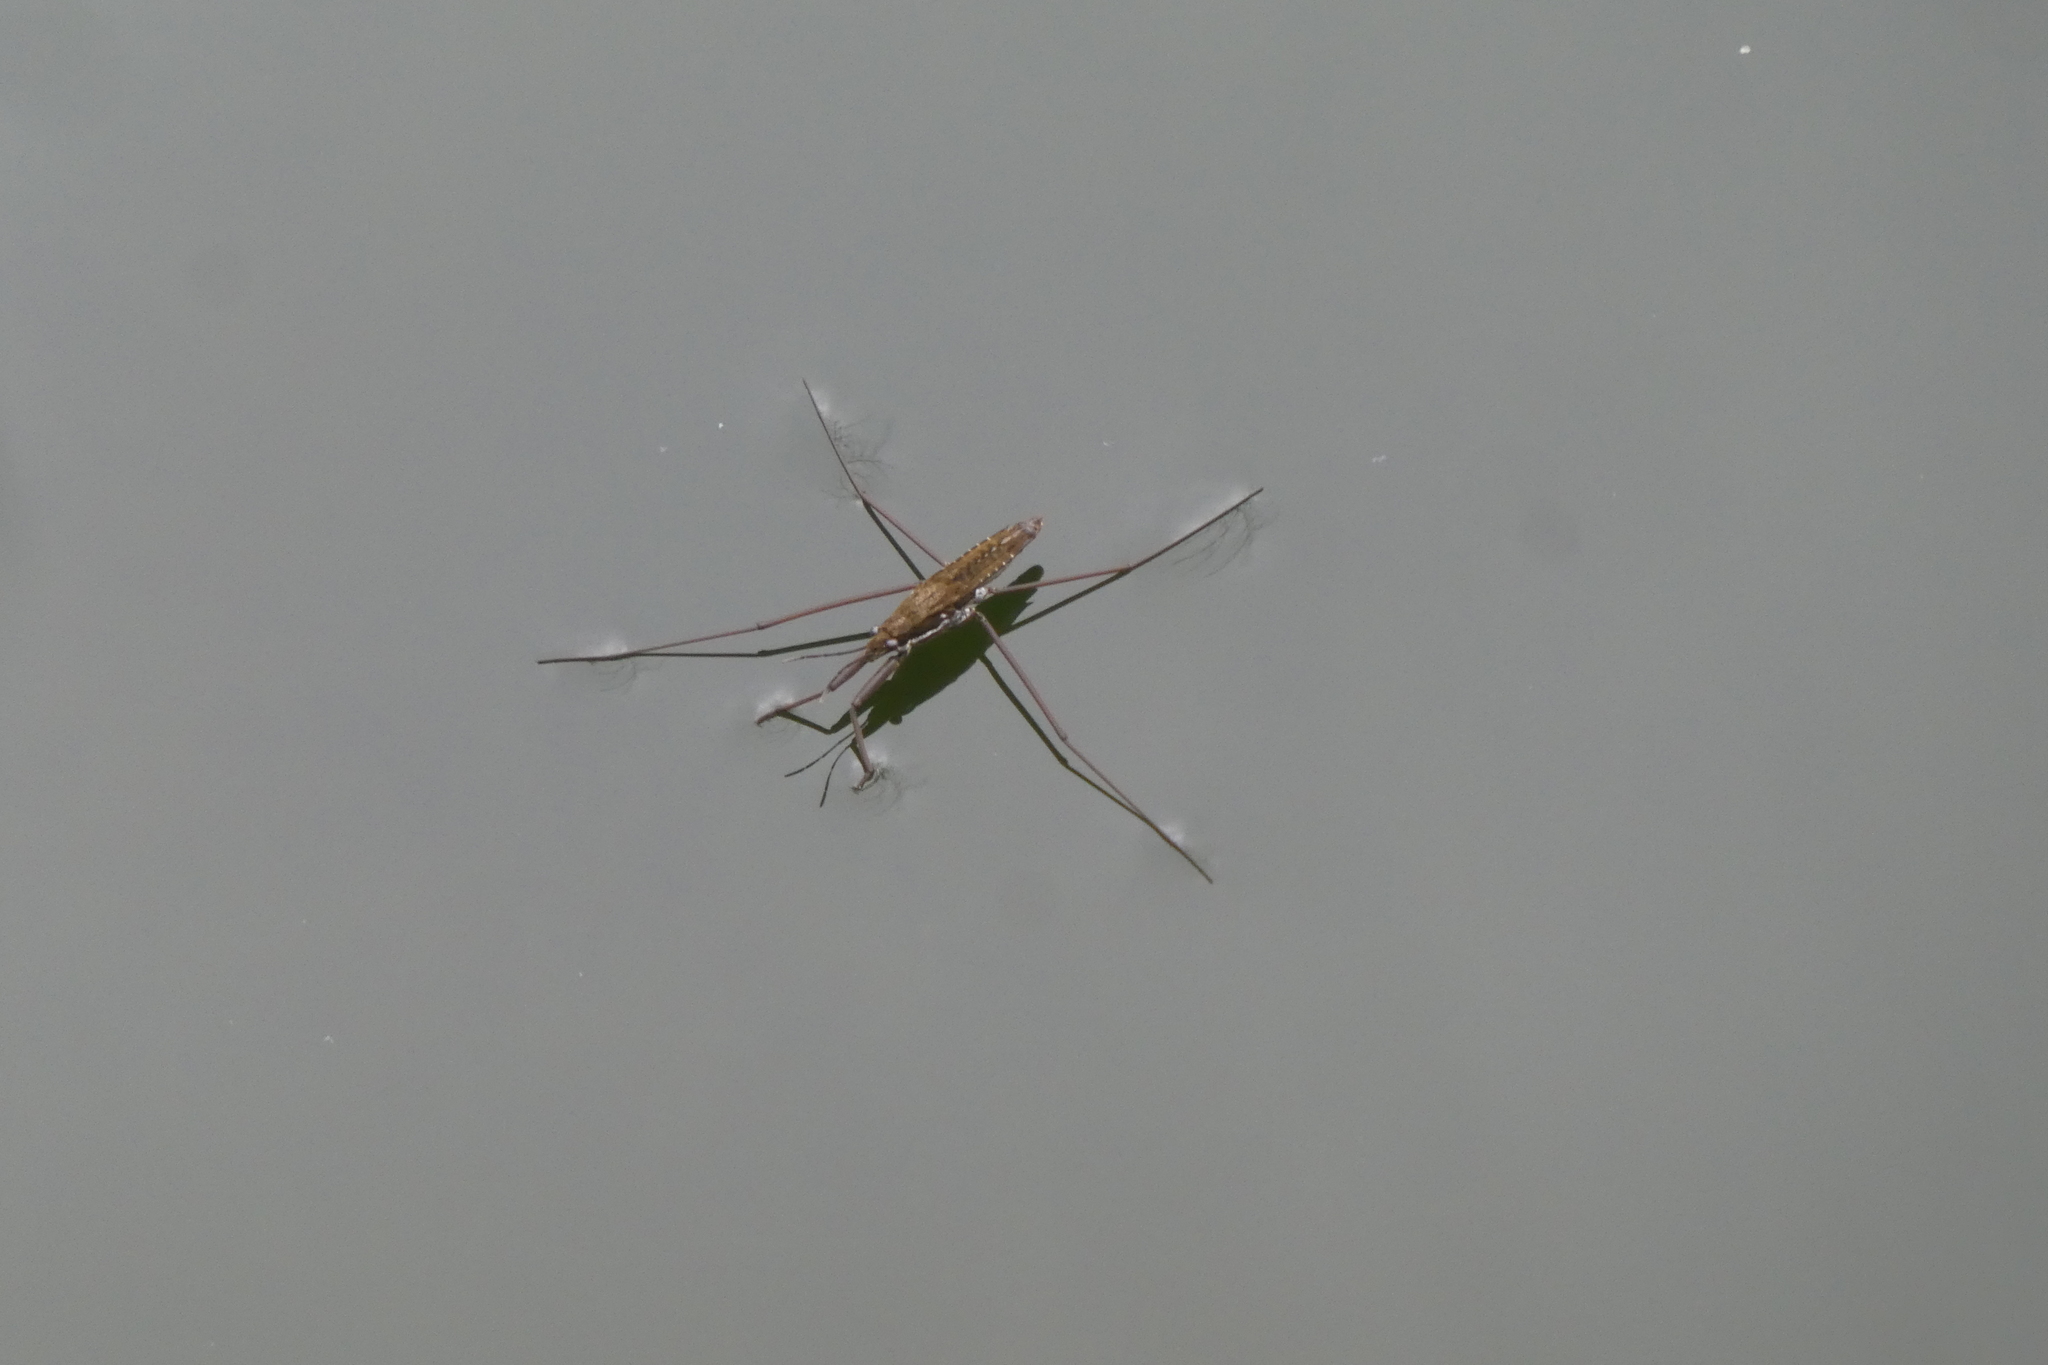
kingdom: Animalia
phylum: Arthropoda
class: Insecta
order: Hemiptera
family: Gerridae
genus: Aquarius
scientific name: Aquarius remigis
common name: Common water strider
